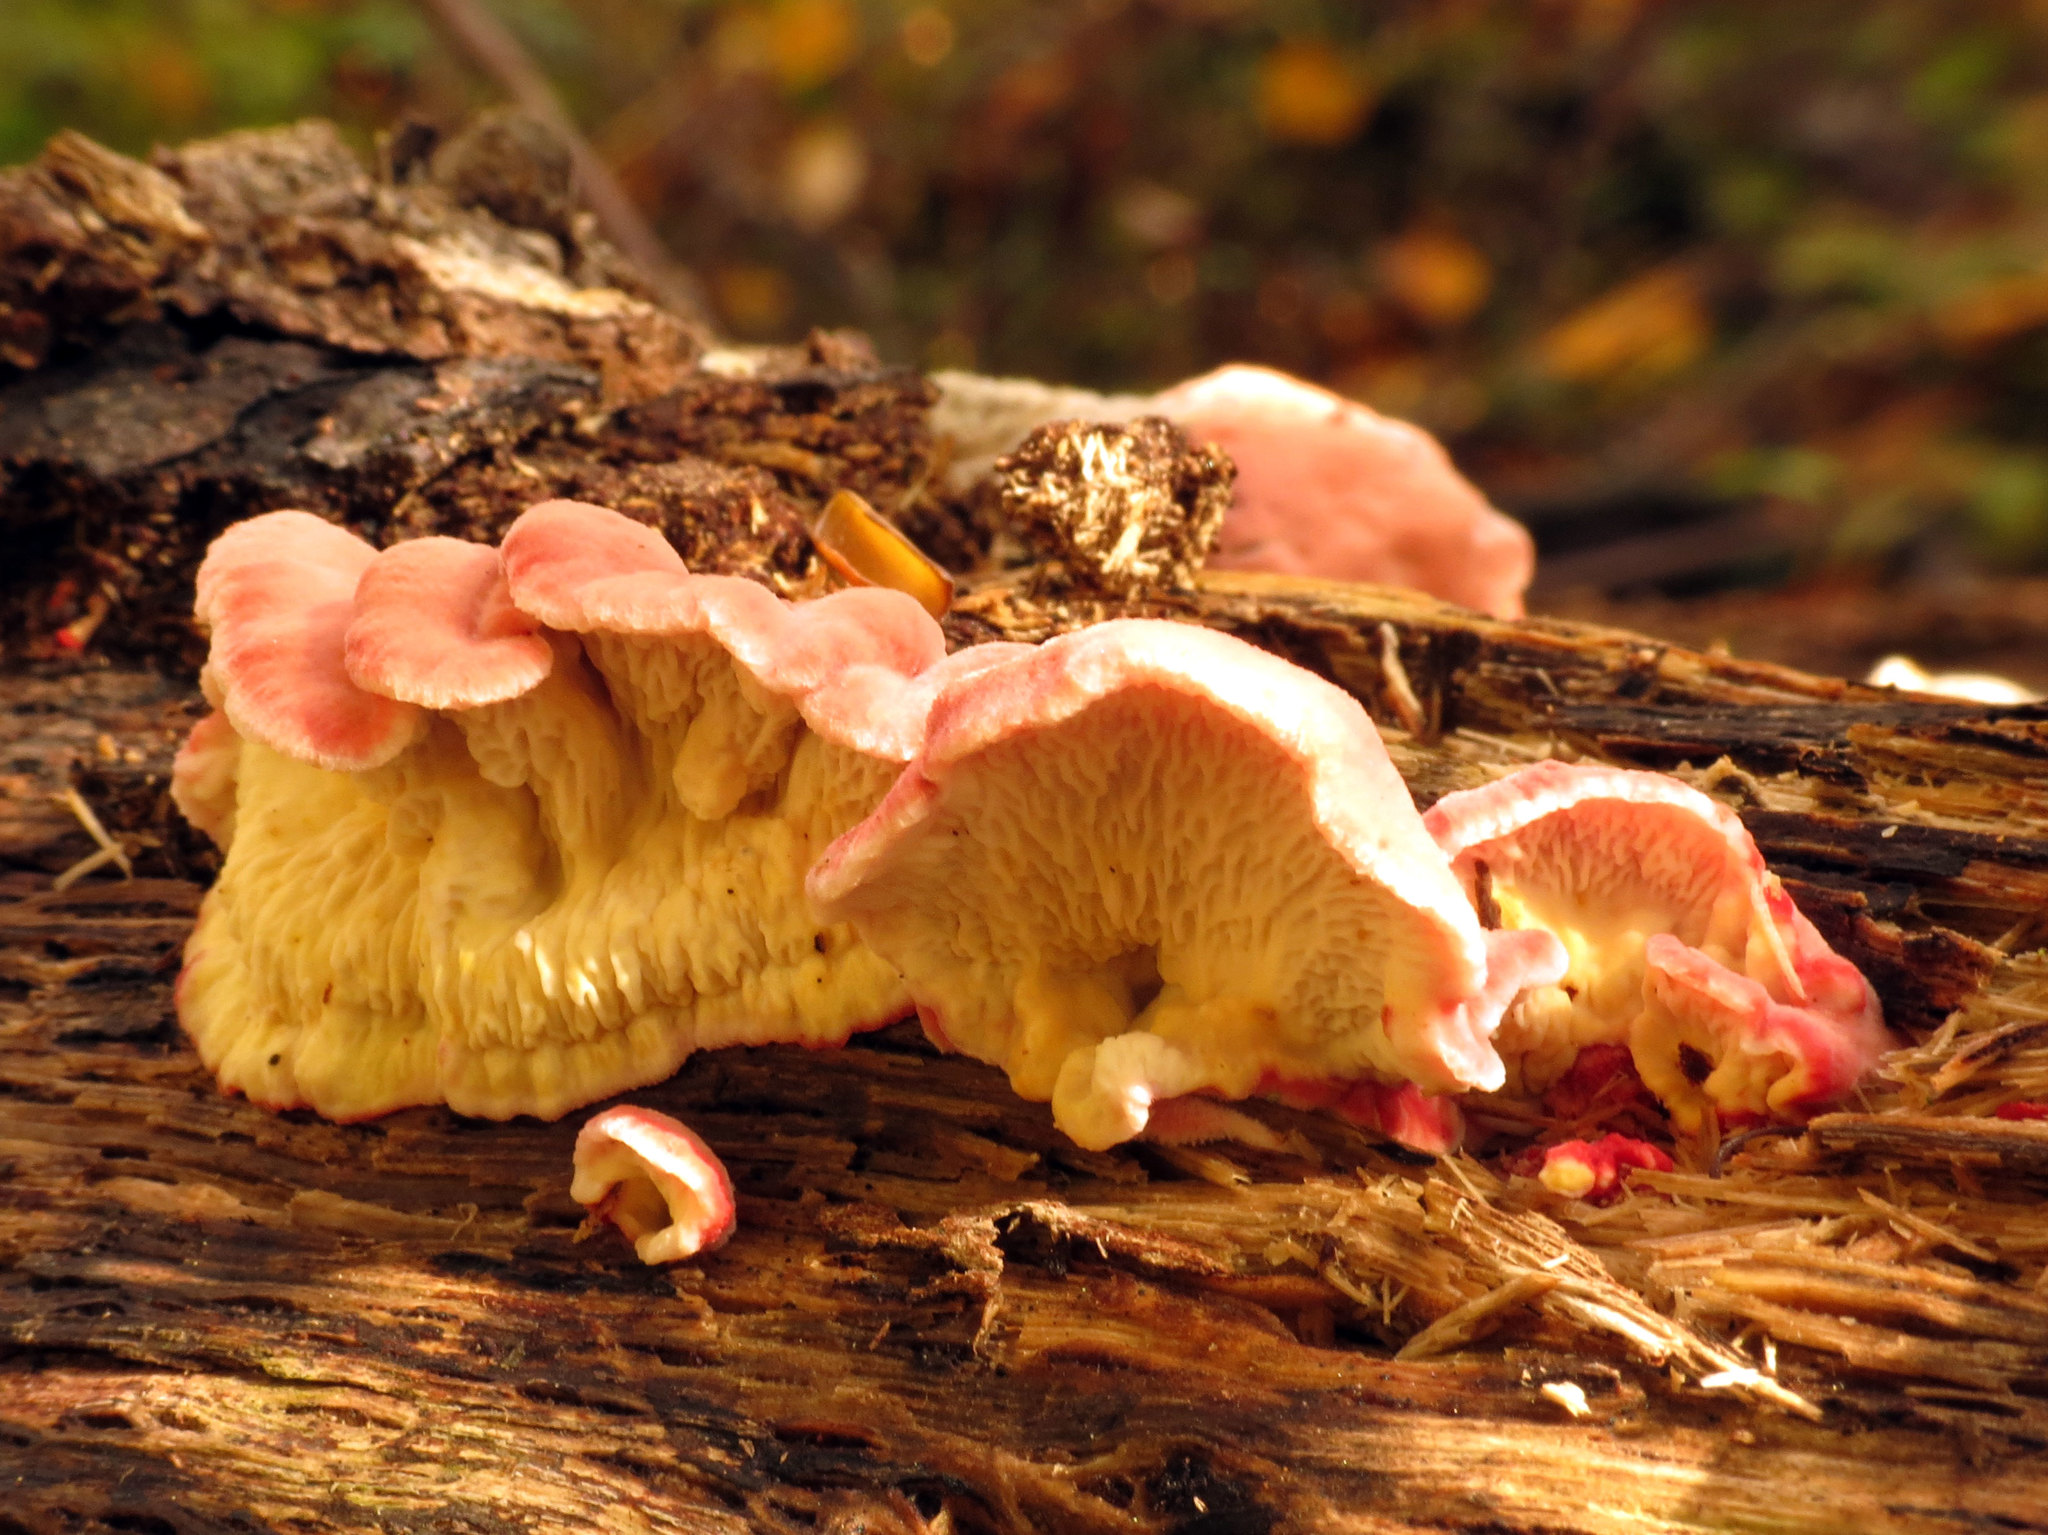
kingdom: Fungi
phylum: Basidiomycota
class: Agaricomycetes
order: Polyporales
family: Irpicaceae
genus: Byssomerulius
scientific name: Byssomerulius incarnatus
